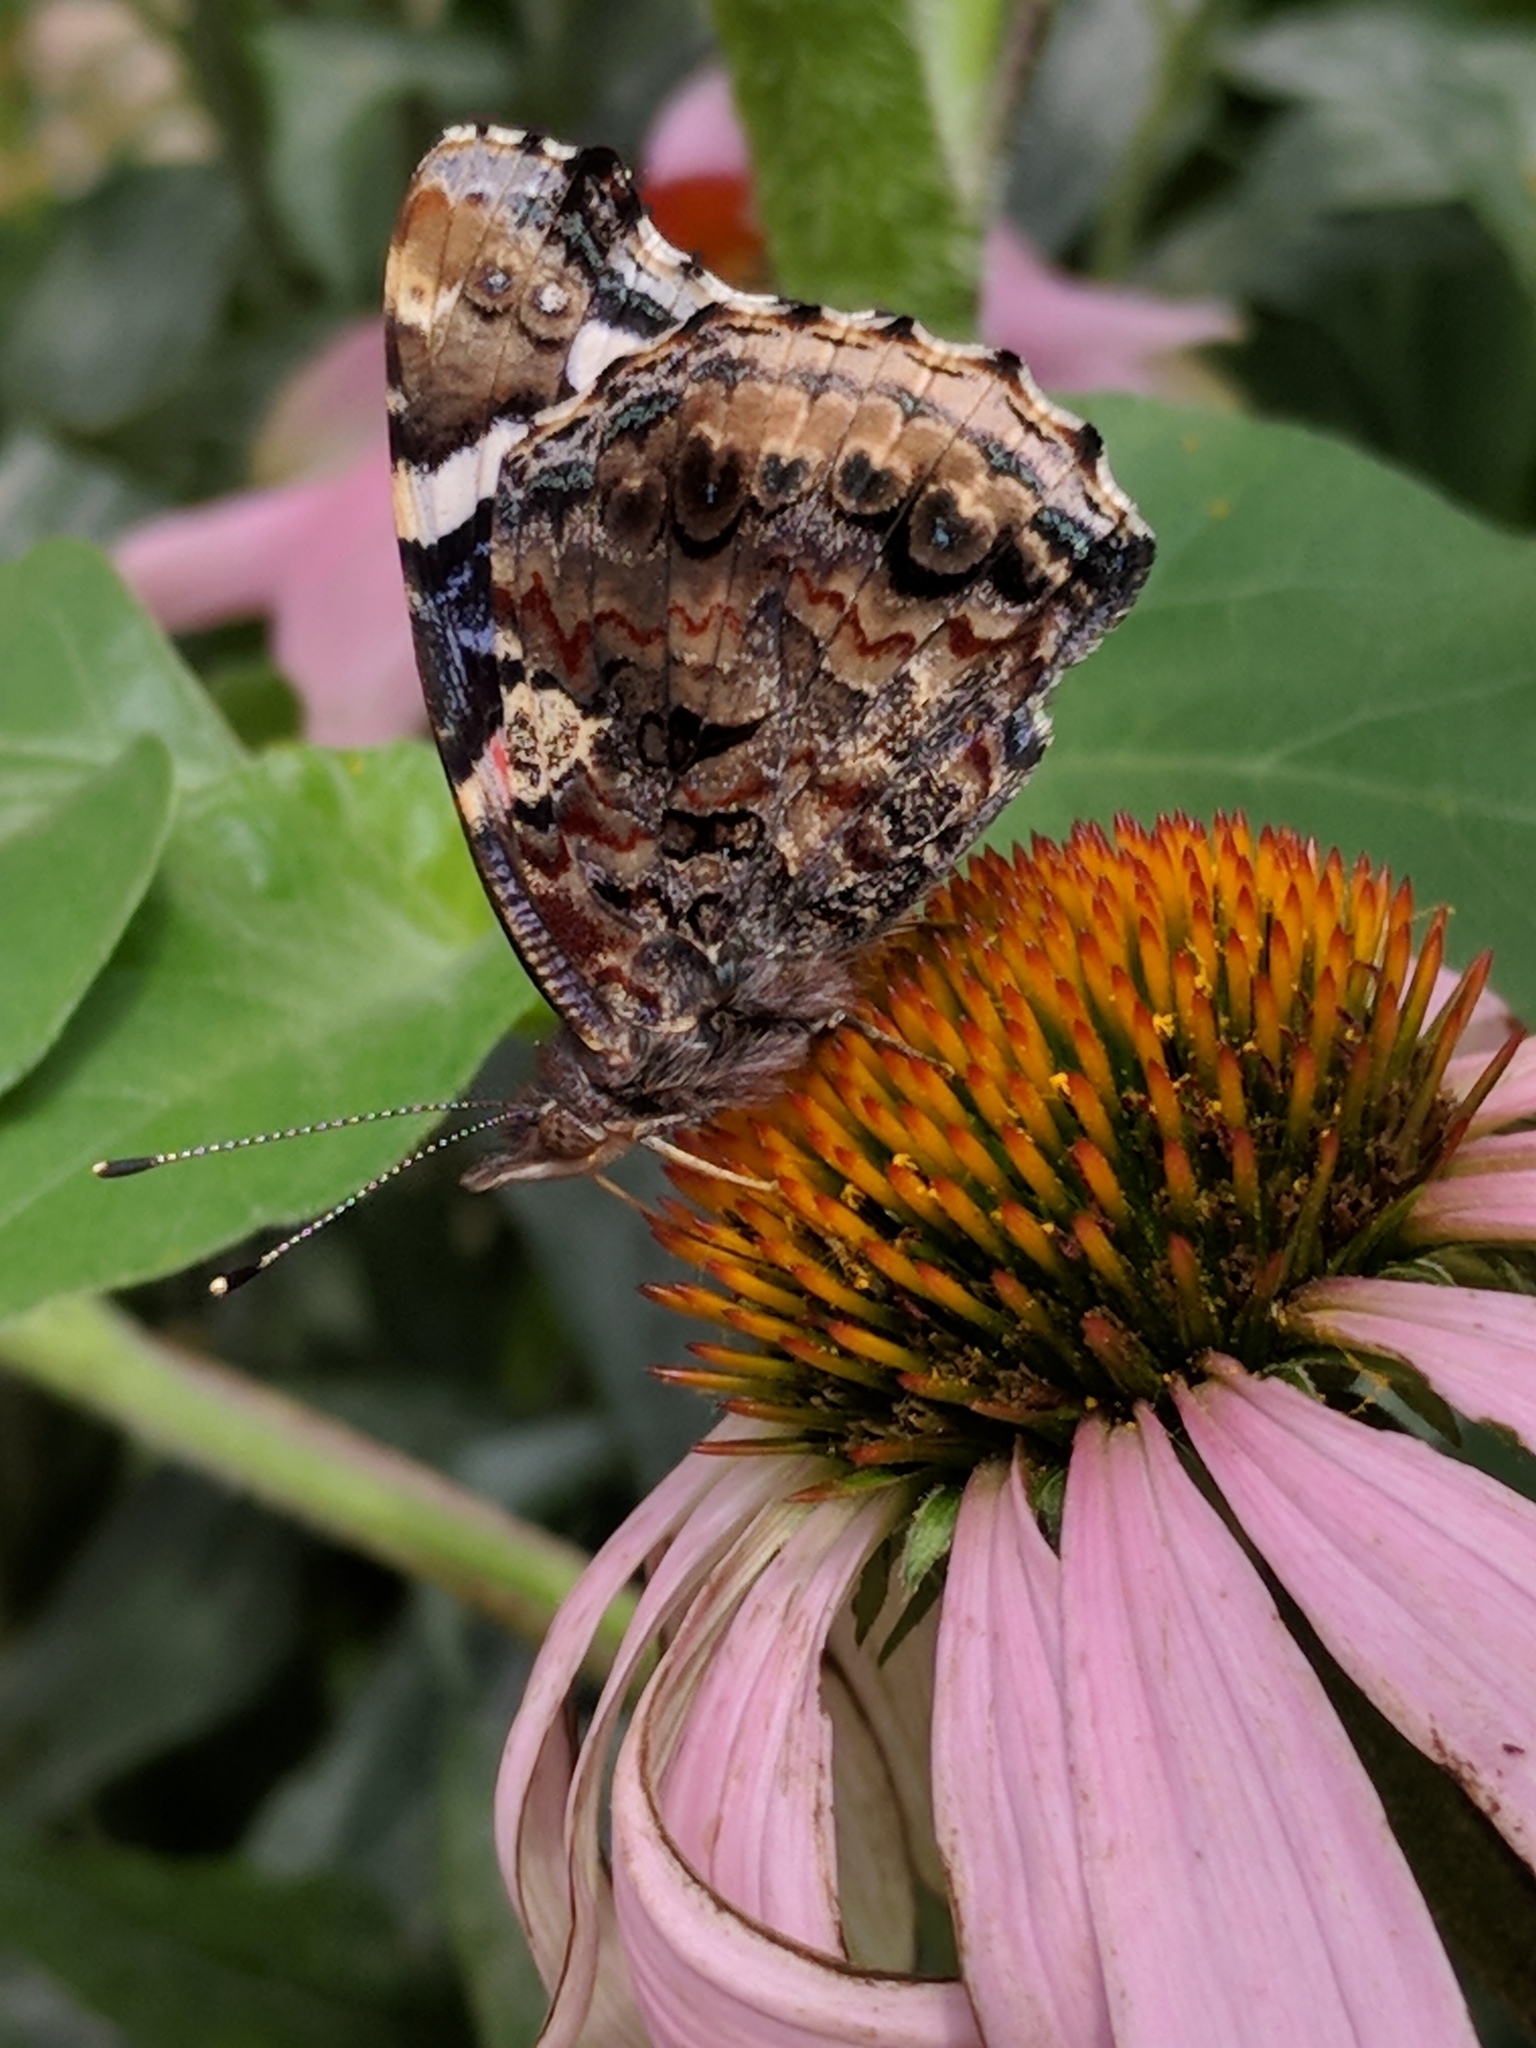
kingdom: Animalia
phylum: Arthropoda
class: Insecta
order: Lepidoptera
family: Nymphalidae
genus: Vanessa
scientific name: Vanessa atalanta
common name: Red admiral
